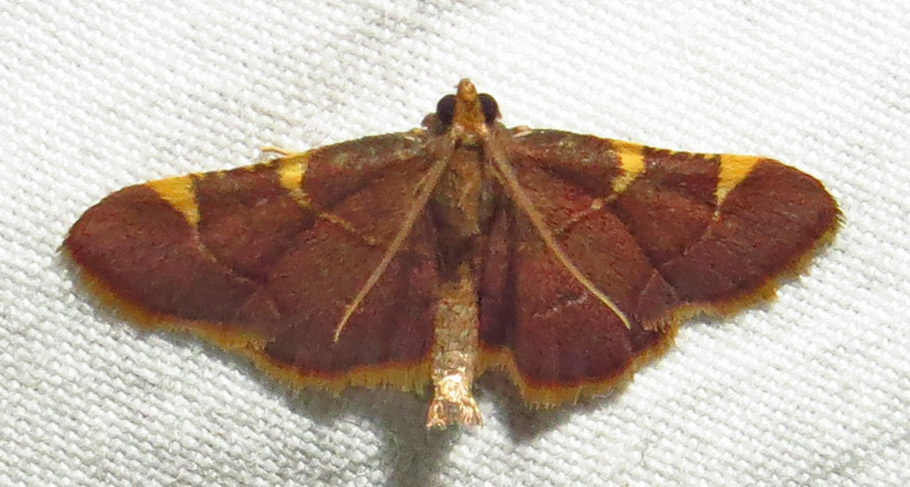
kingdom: Animalia
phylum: Arthropoda
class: Insecta
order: Lepidoptera
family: Pyralidae
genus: Hypsopygia
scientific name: Hypsopygia olinalis
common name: Yellow-fringed dolichomia moth
